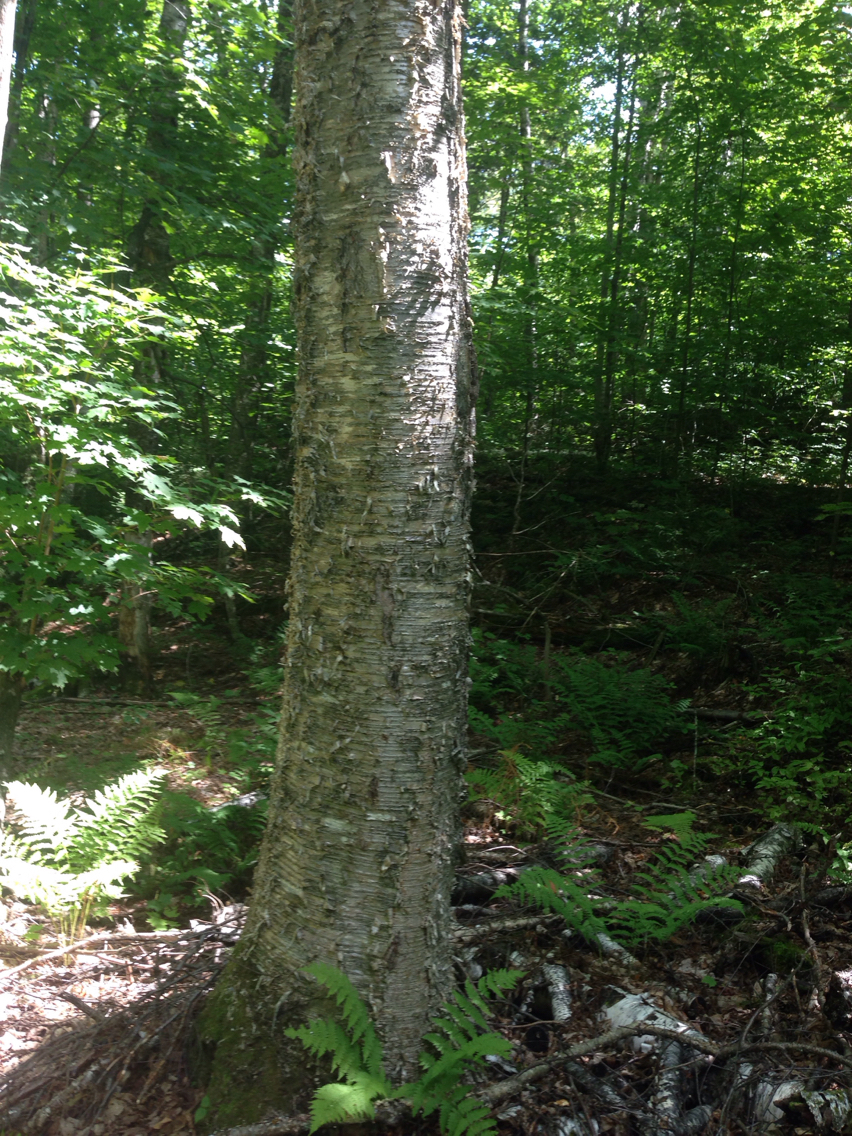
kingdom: Plantae
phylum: Tracheophyta
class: Magnoliopsida
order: Fagales
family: Betulaceae
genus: Betula
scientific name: Betula alleghaniensis
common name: Yellow birch
